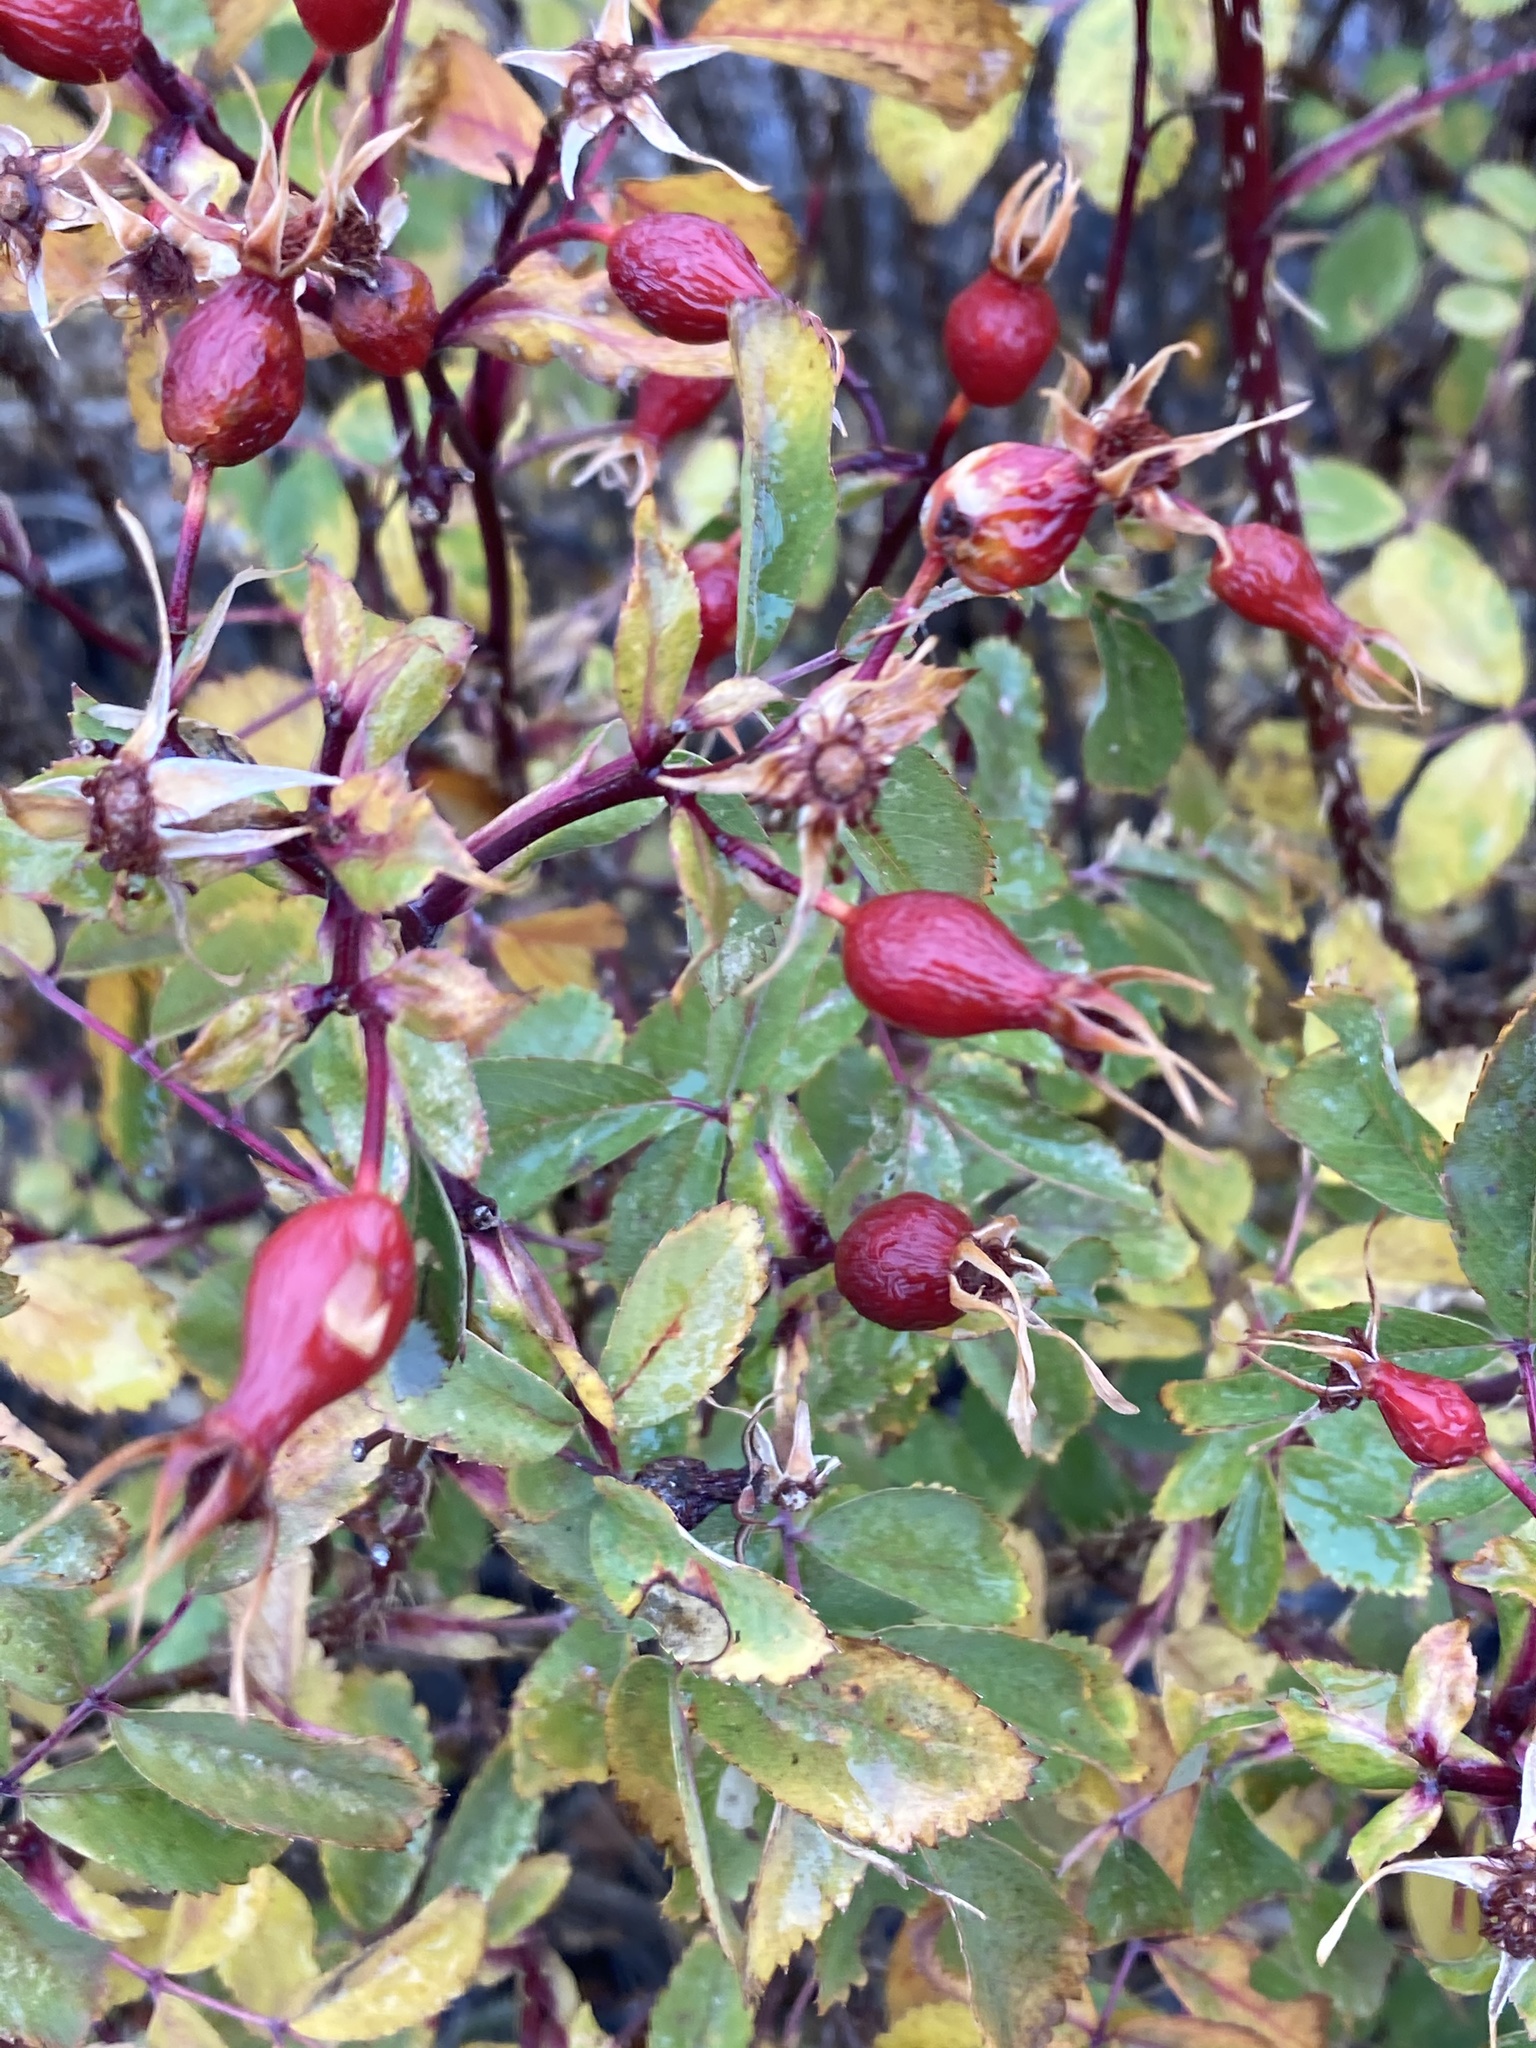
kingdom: Plantae
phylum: Tracheophyta
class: Magnoliopsida
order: Rosales
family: Rosaceae
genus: Rosa
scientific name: Rosa woodsii
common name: Woods's rose
